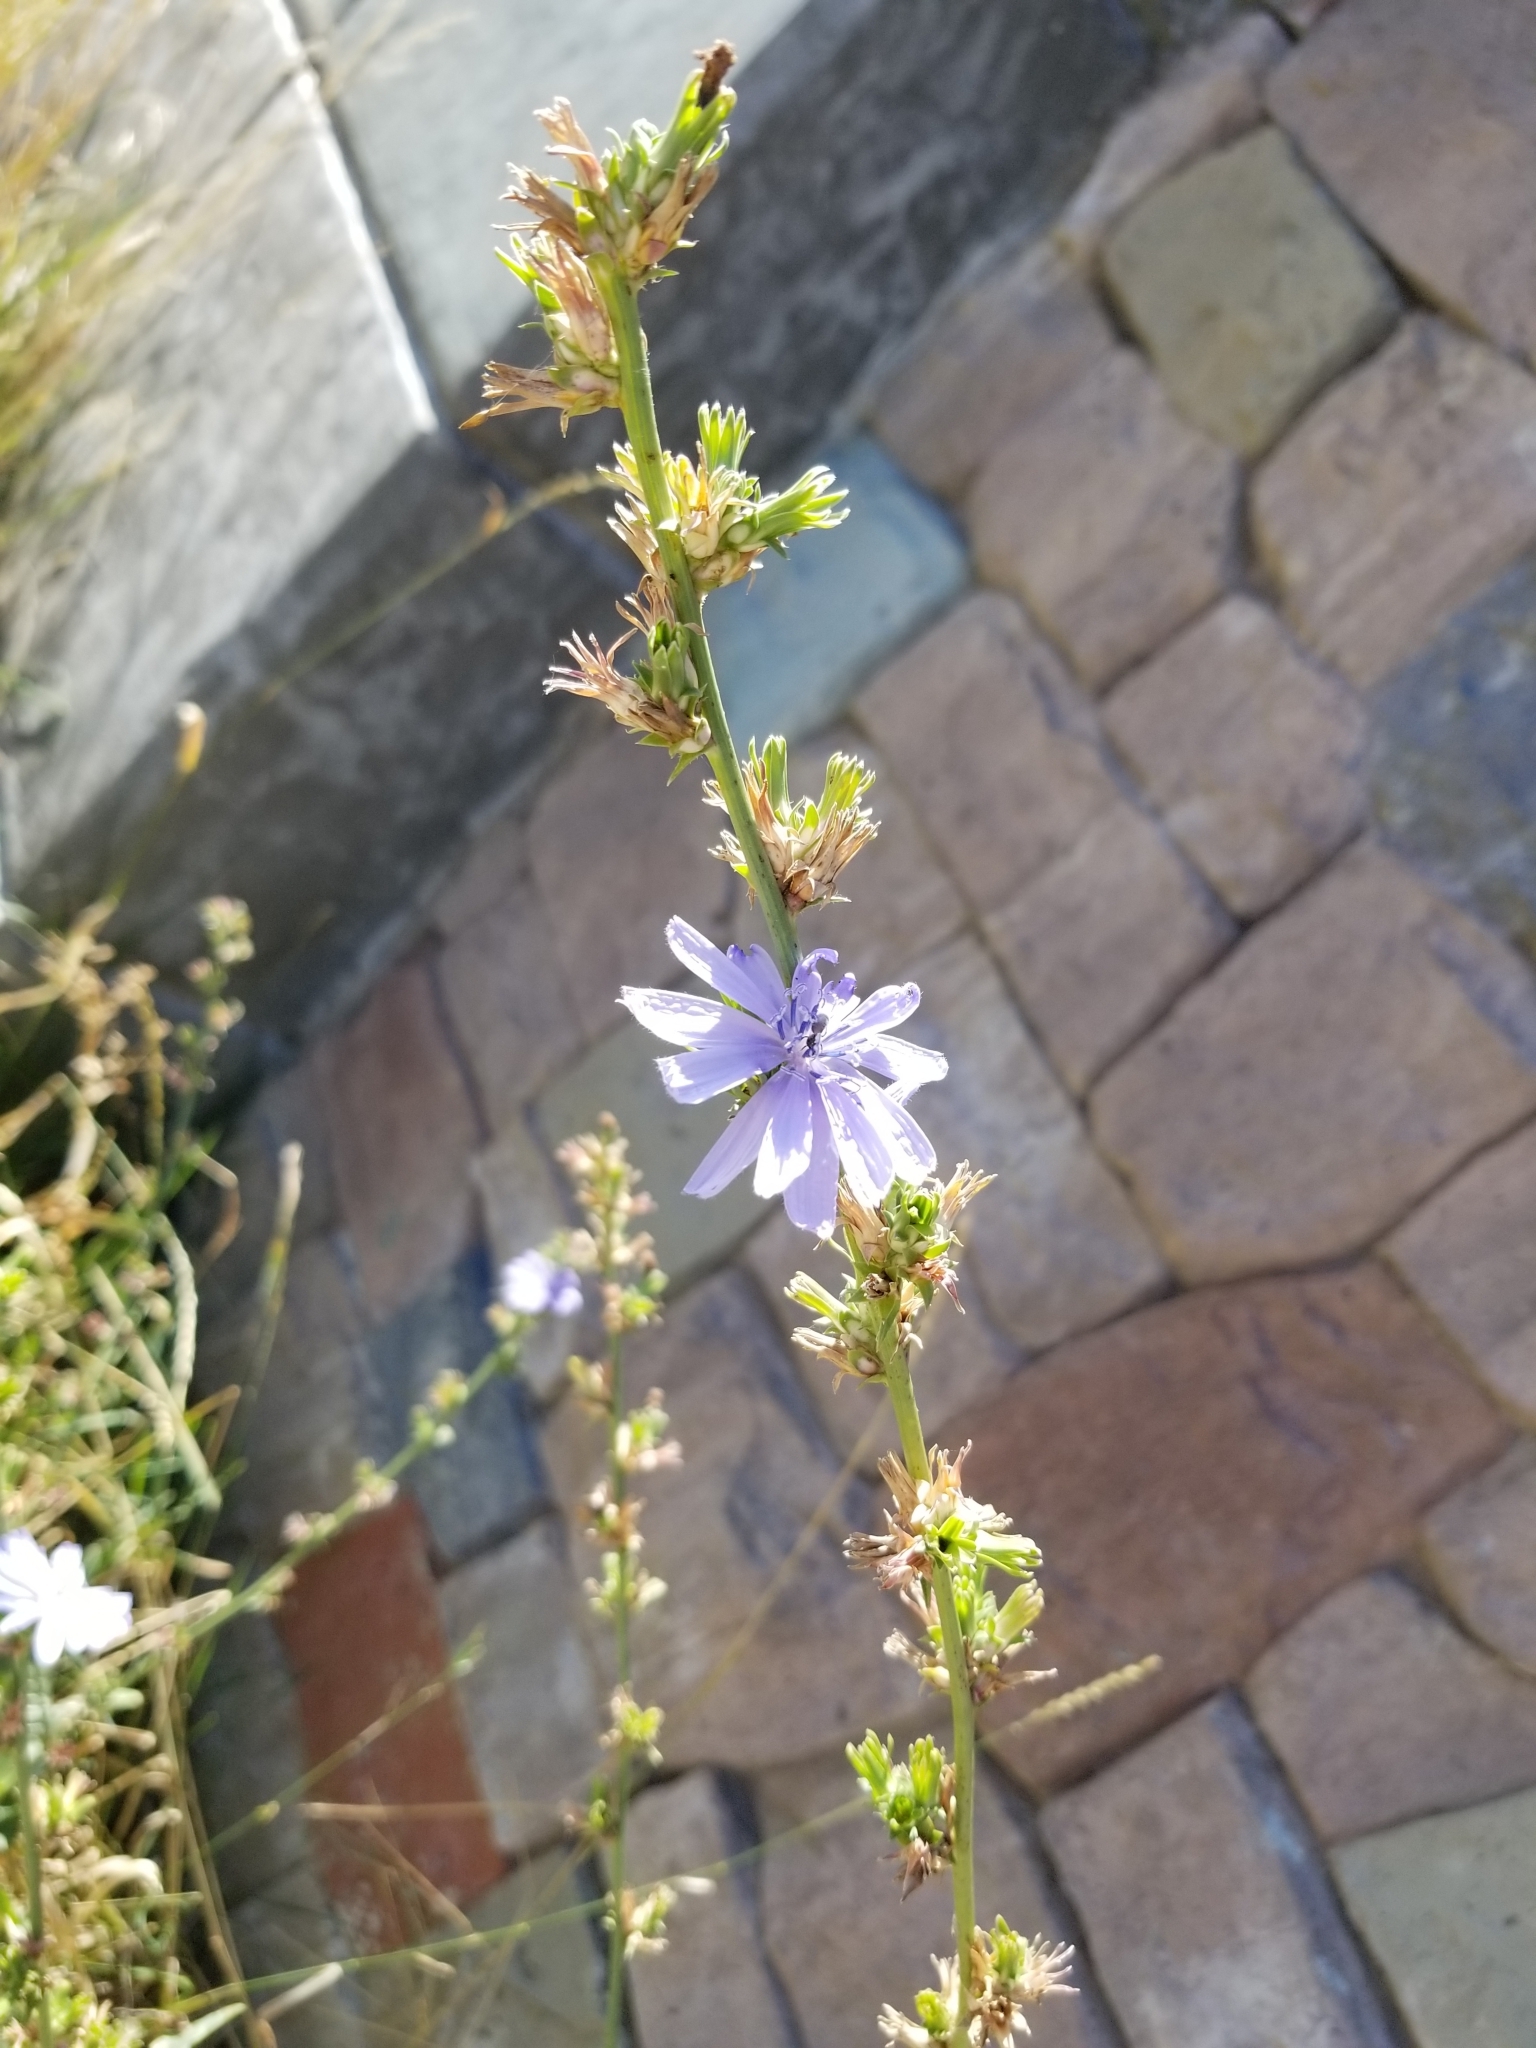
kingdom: Plantae
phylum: Tracheophyta
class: Magnoliopsida
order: Asterales
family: Asteraceae
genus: Cichorium
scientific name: Cichorium intybus
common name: Chicory
